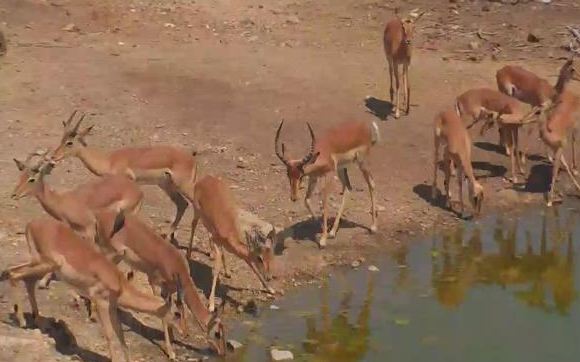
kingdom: Animalia
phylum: Chordata
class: Mammalia
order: Artiodactyla
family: Bovidae
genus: Aepyceros
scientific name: Aepyceros melampus
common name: Impala
